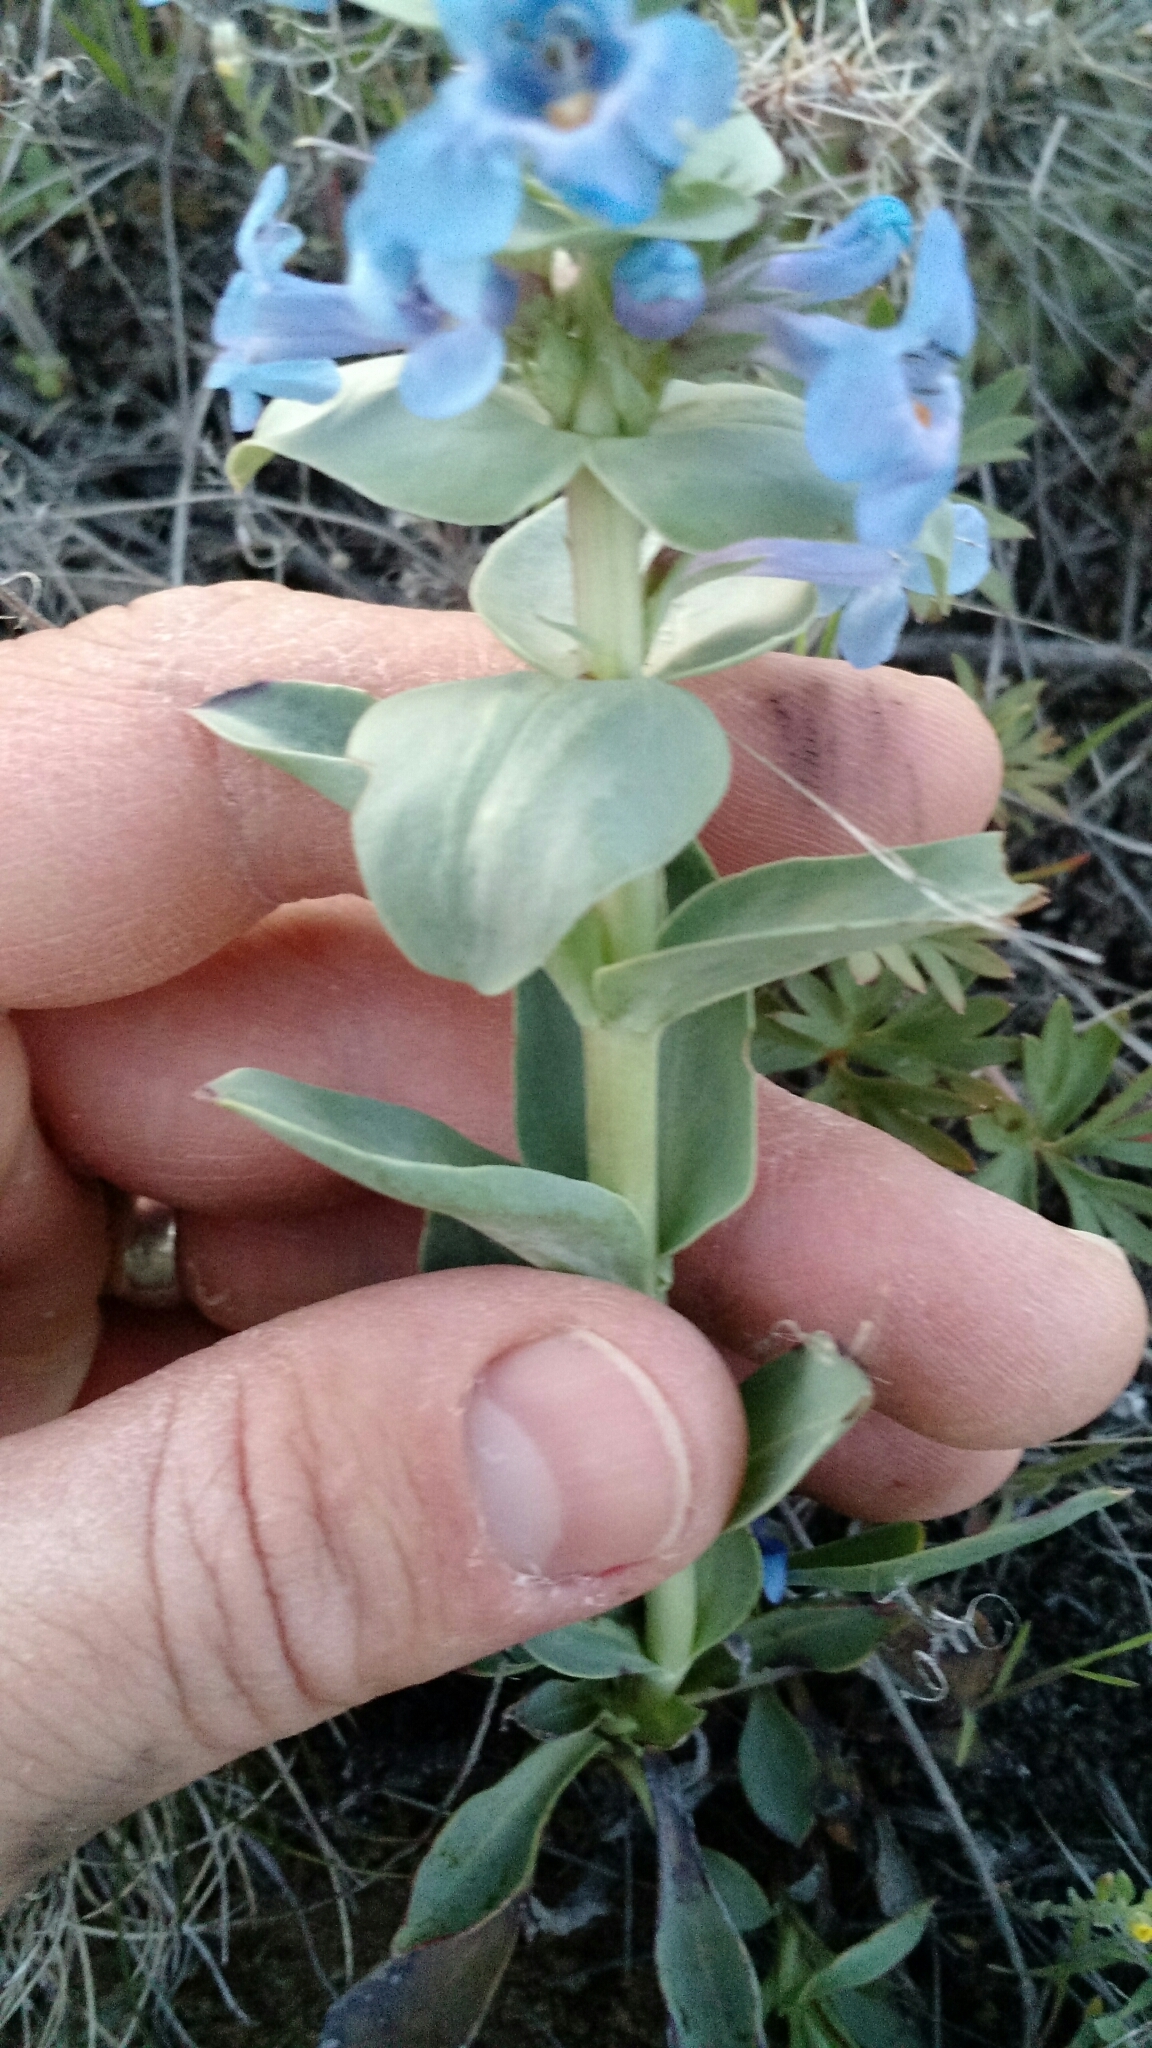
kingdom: Plantae
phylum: Tracheophyta
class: Magnoliopsida
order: Lamiales
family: Plantaginaceae
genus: Penstemon
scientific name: Penstemon nitidus
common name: Shining penstemon
